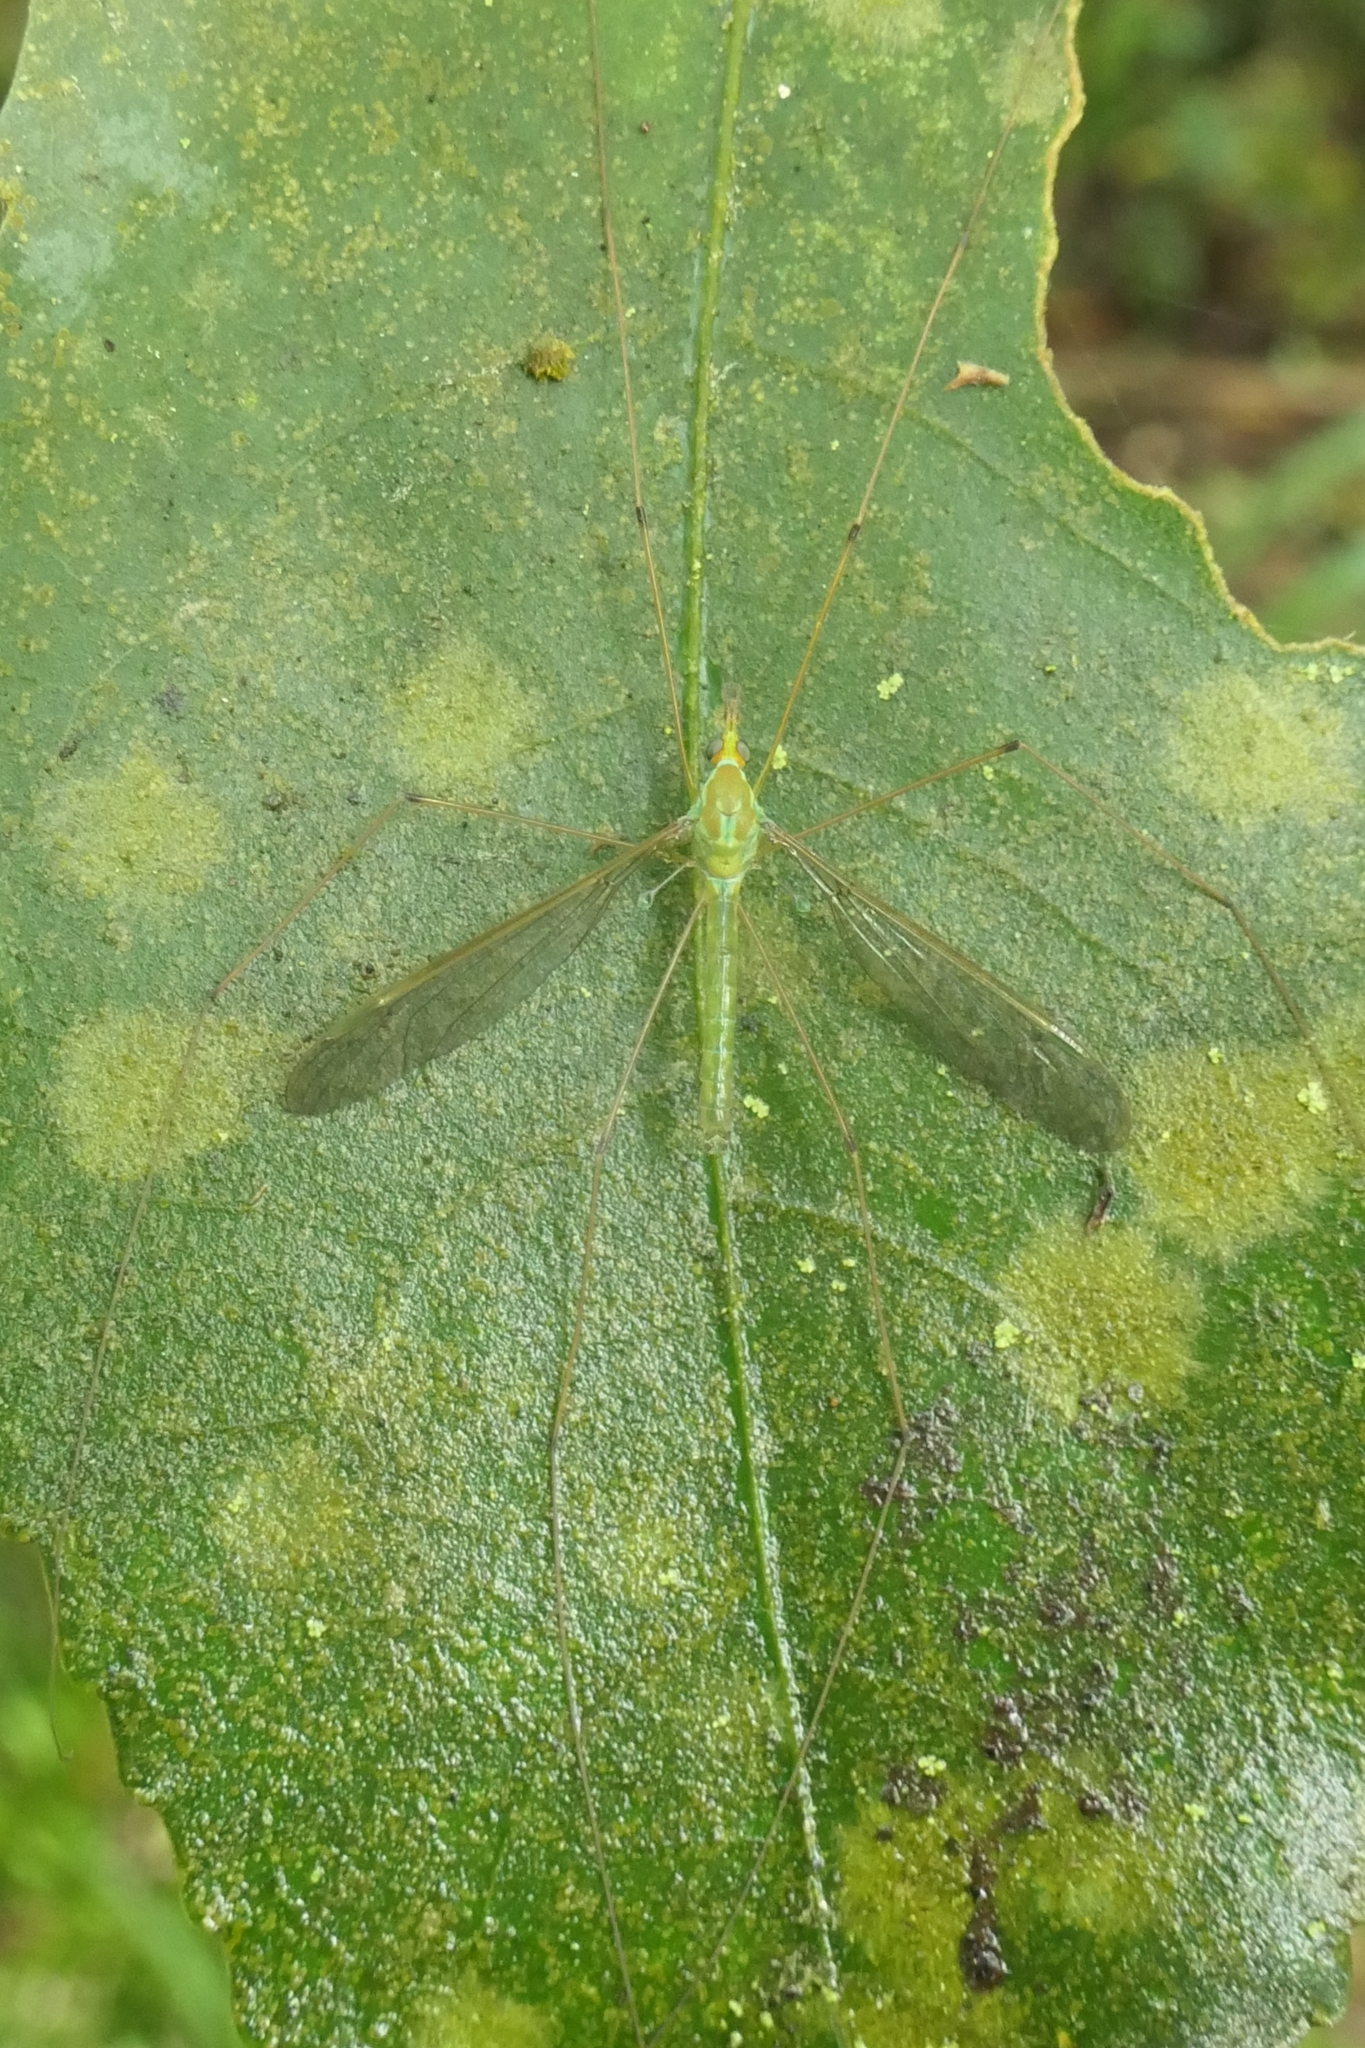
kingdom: Animalia
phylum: Arthropoda
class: Insecta
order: Diptera
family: Tipulidae
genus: Leptotarsus
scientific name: Leptotarsus virescens
